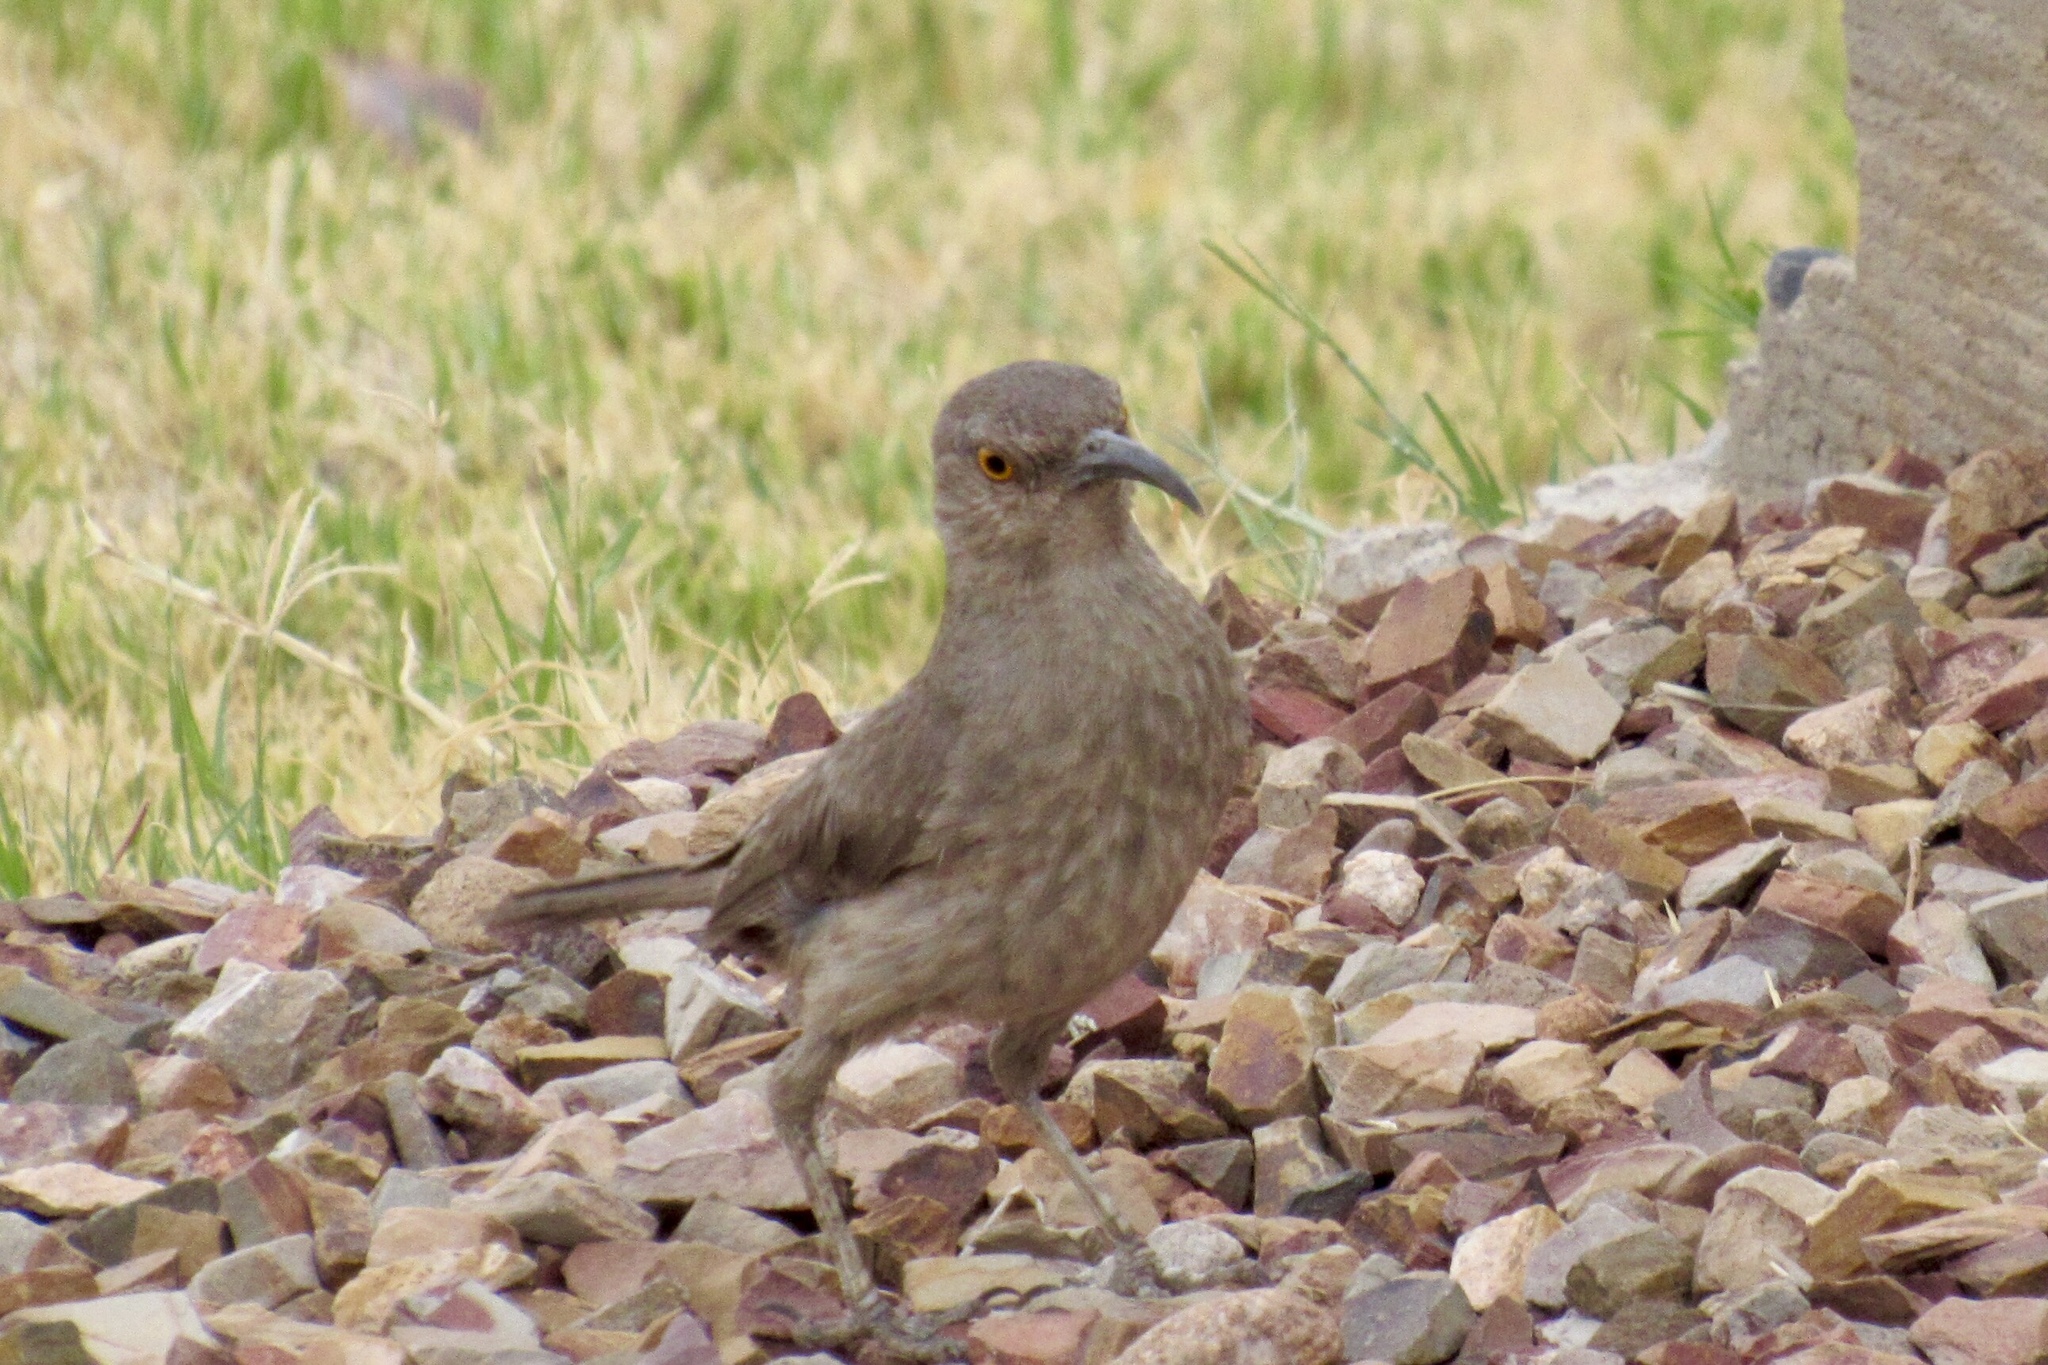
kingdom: Animalia
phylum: Chordata
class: Aves
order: Passeriformes
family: Mimidae
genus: Toxostoma
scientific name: Toxostoma curvirostre
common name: Curve-billed thrasher
